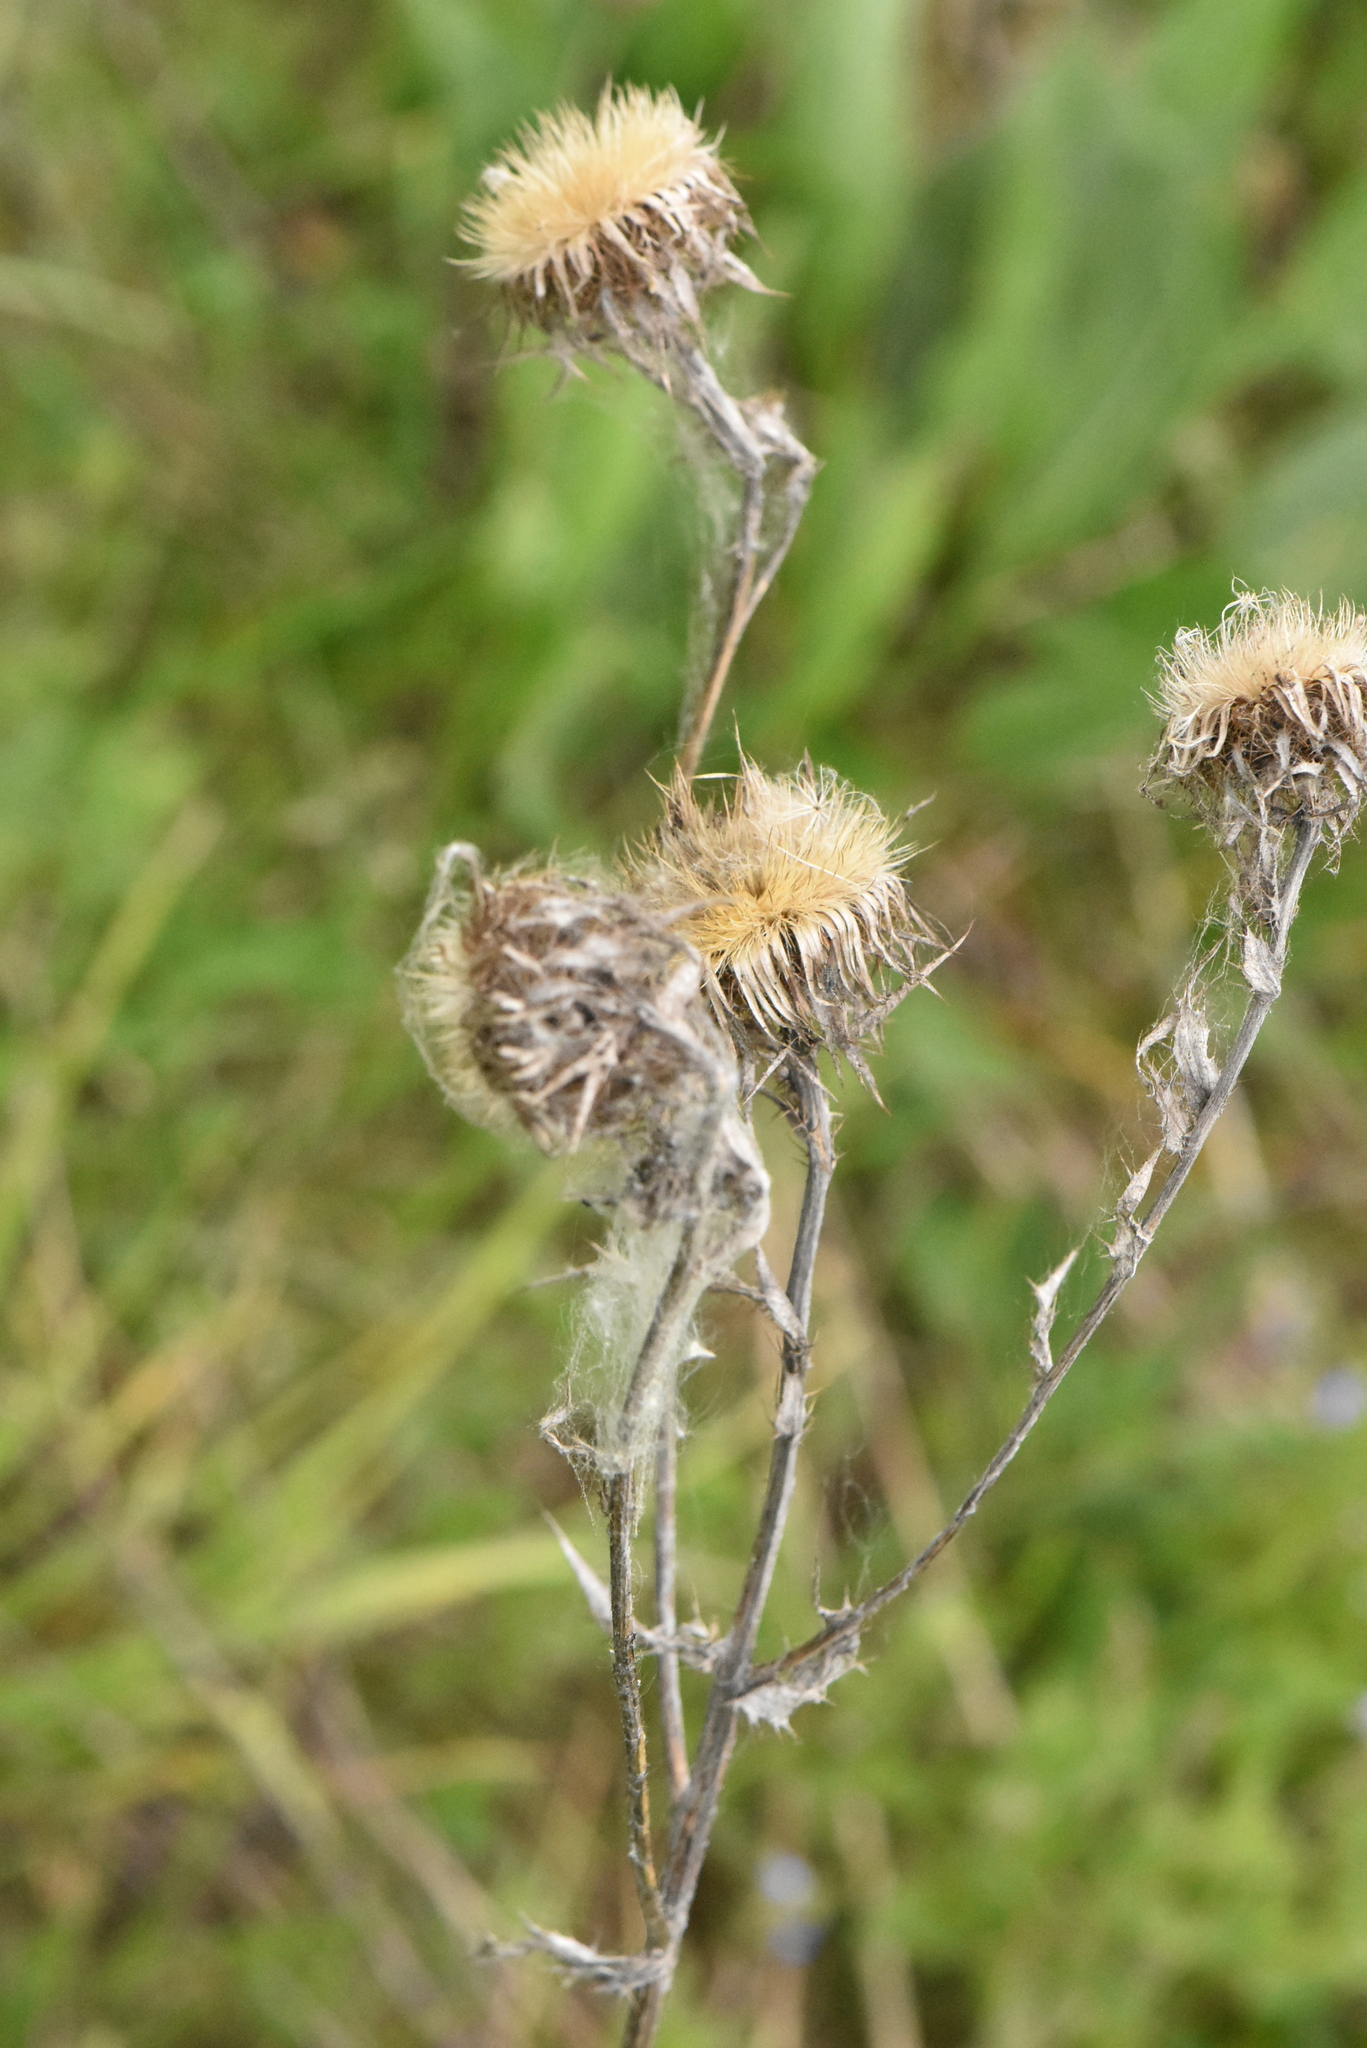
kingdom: Plantae
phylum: Tracheophyta
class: Magnoliopsida
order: Asterales
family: Asteraceae
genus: Carlina
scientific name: Carlina biebersteinii
